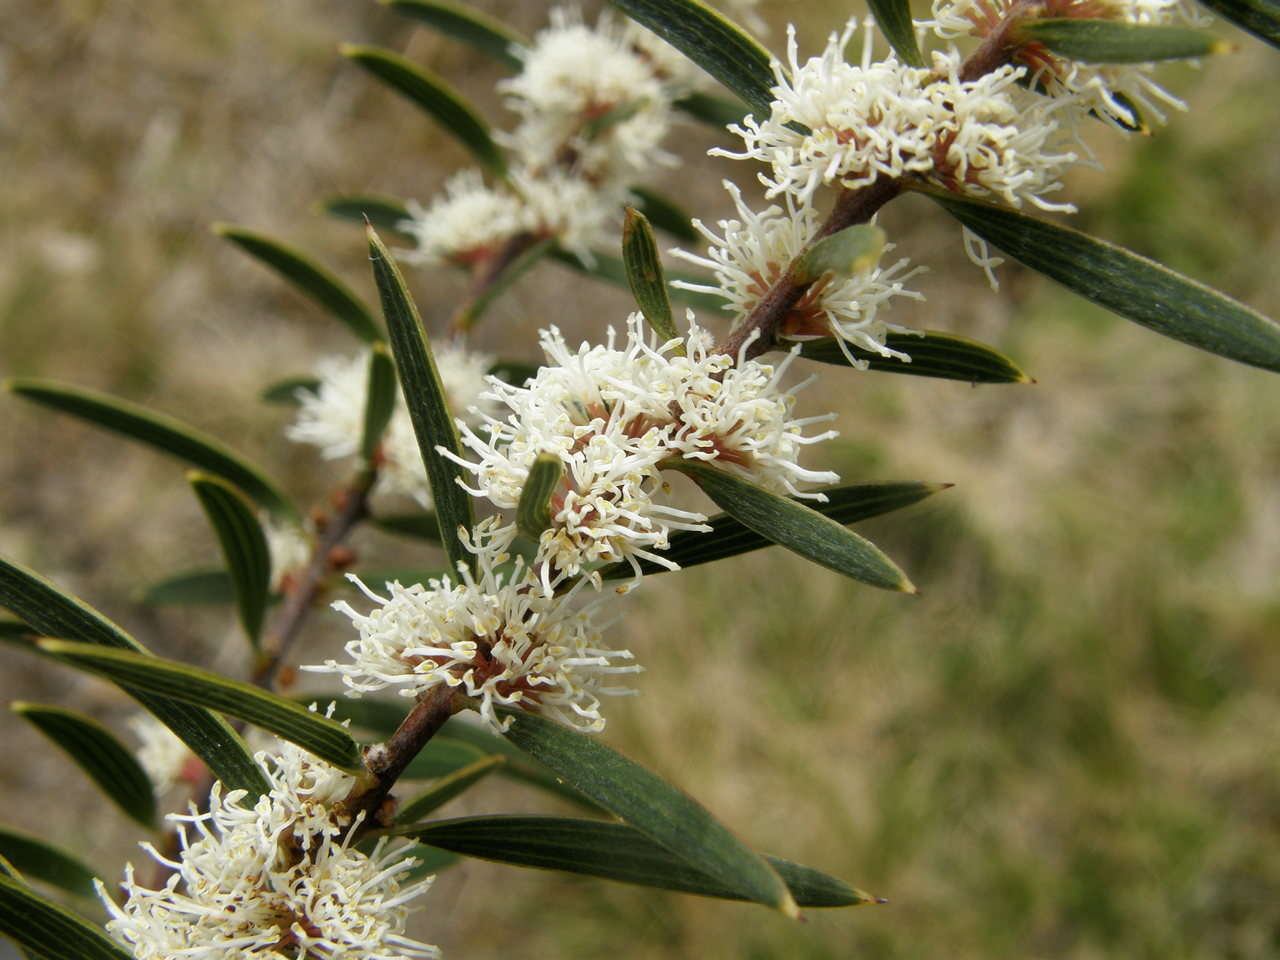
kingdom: Plantae
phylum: Tracheophyta
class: Magnoliopsida
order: Proteales
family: Proteaceae
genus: Hakea
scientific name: Hakea repullulans
